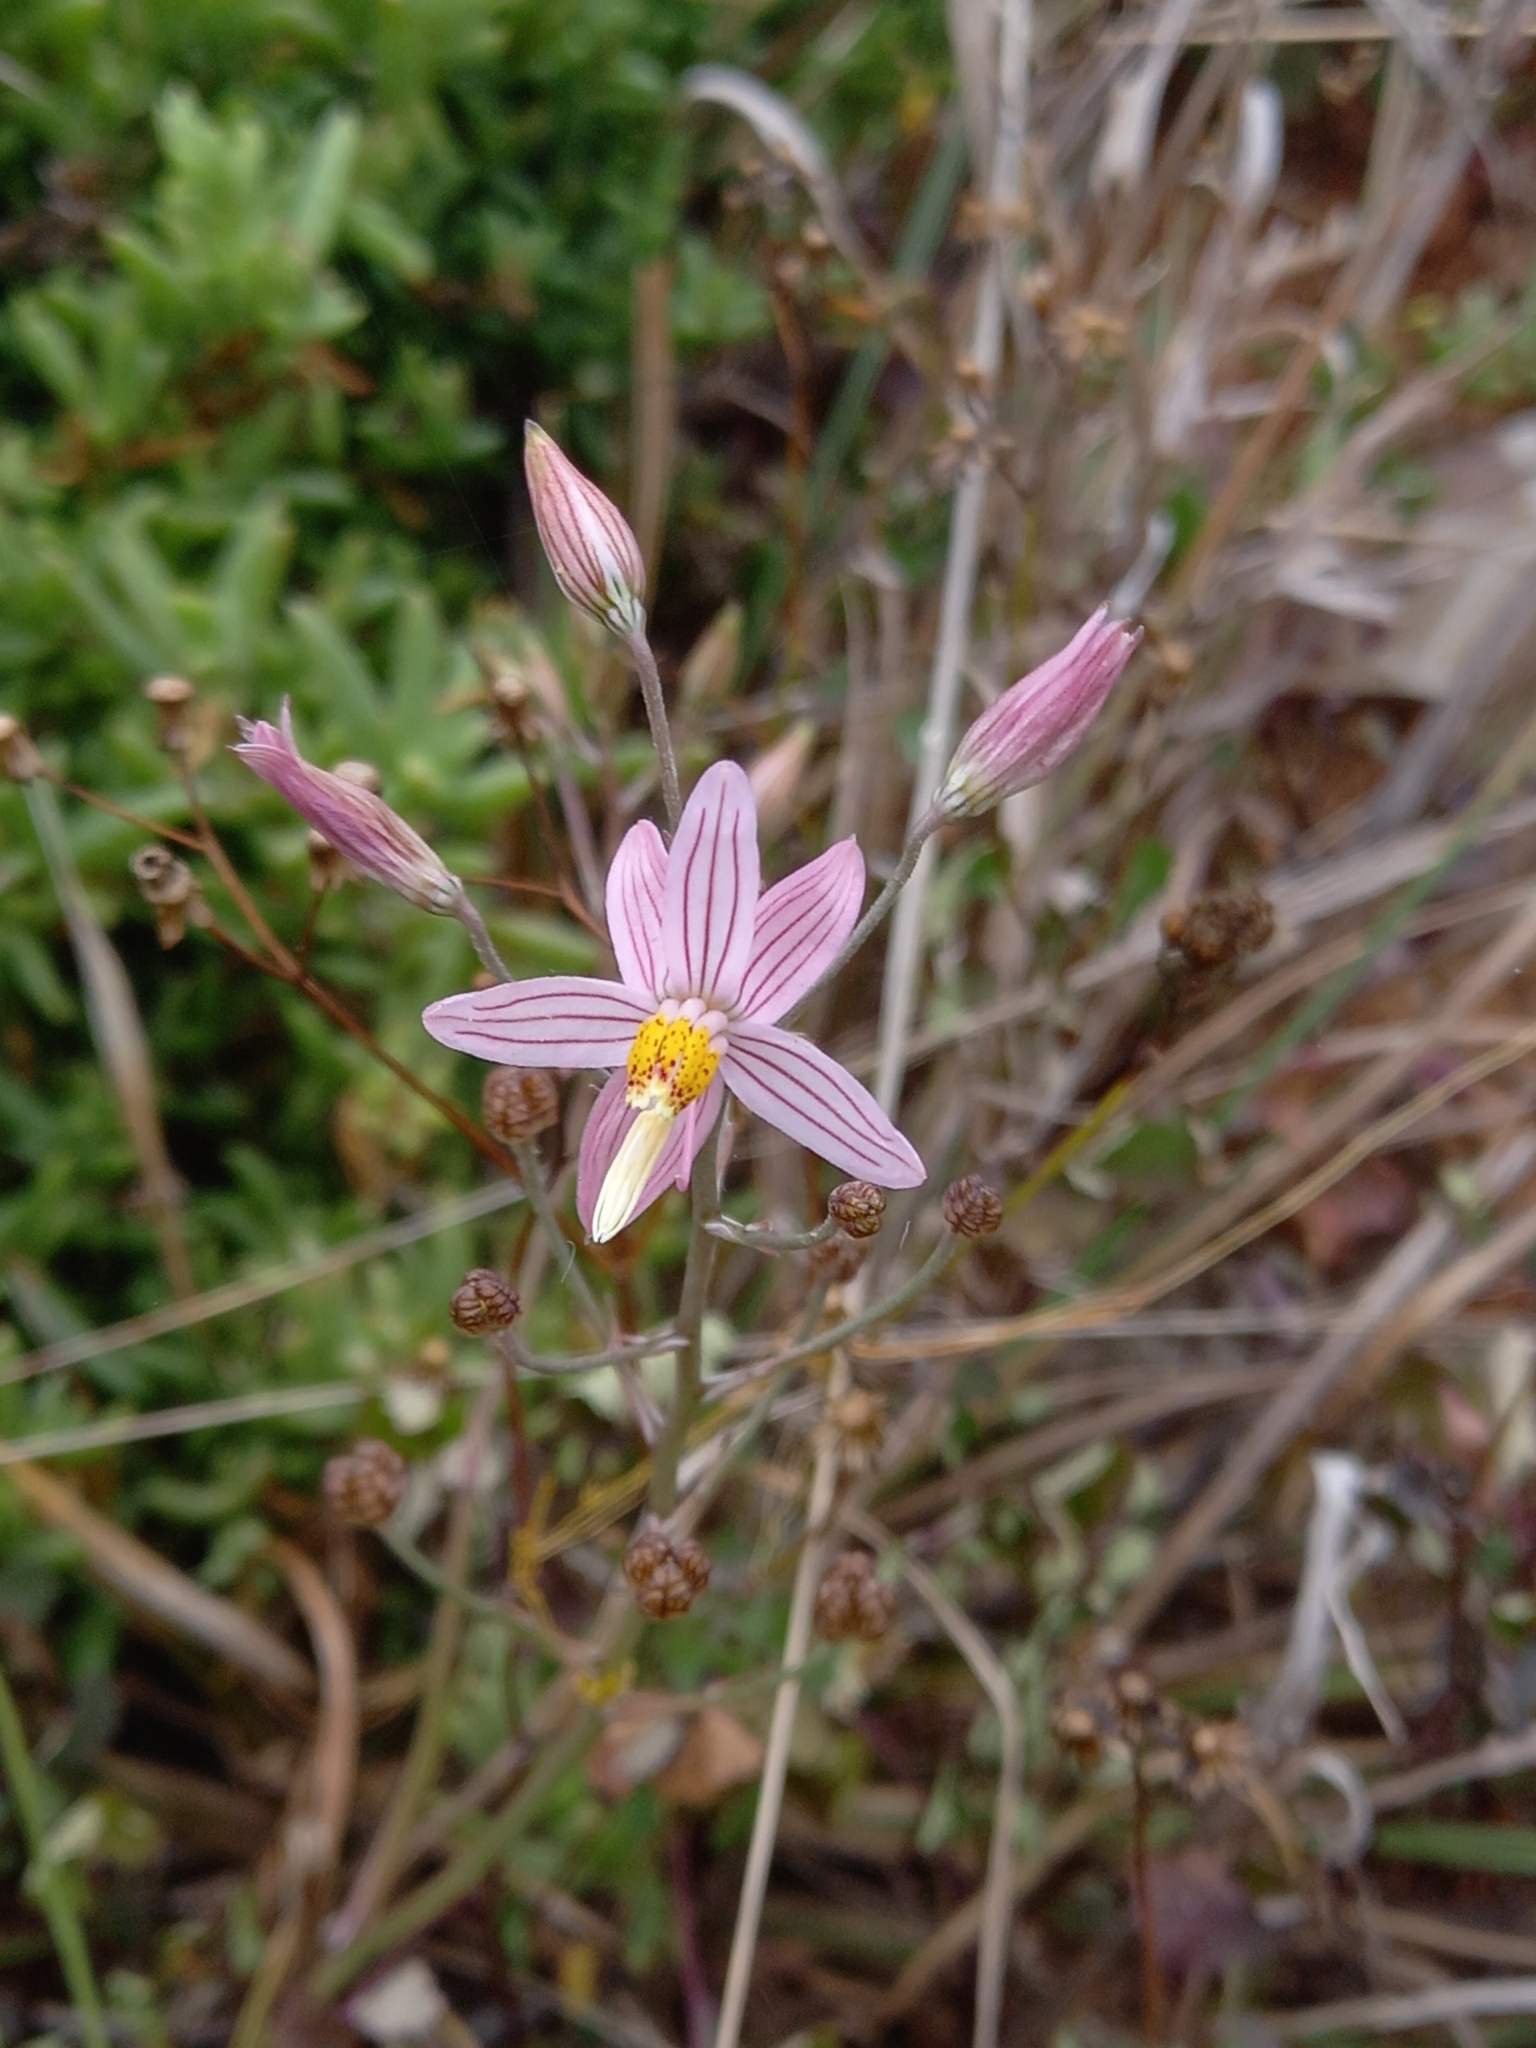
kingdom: Plantae
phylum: Tracheophyta
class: Liliopsida
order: Asparagales
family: Tecophilaeaceae
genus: Cyanella
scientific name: Cyanella lutea
